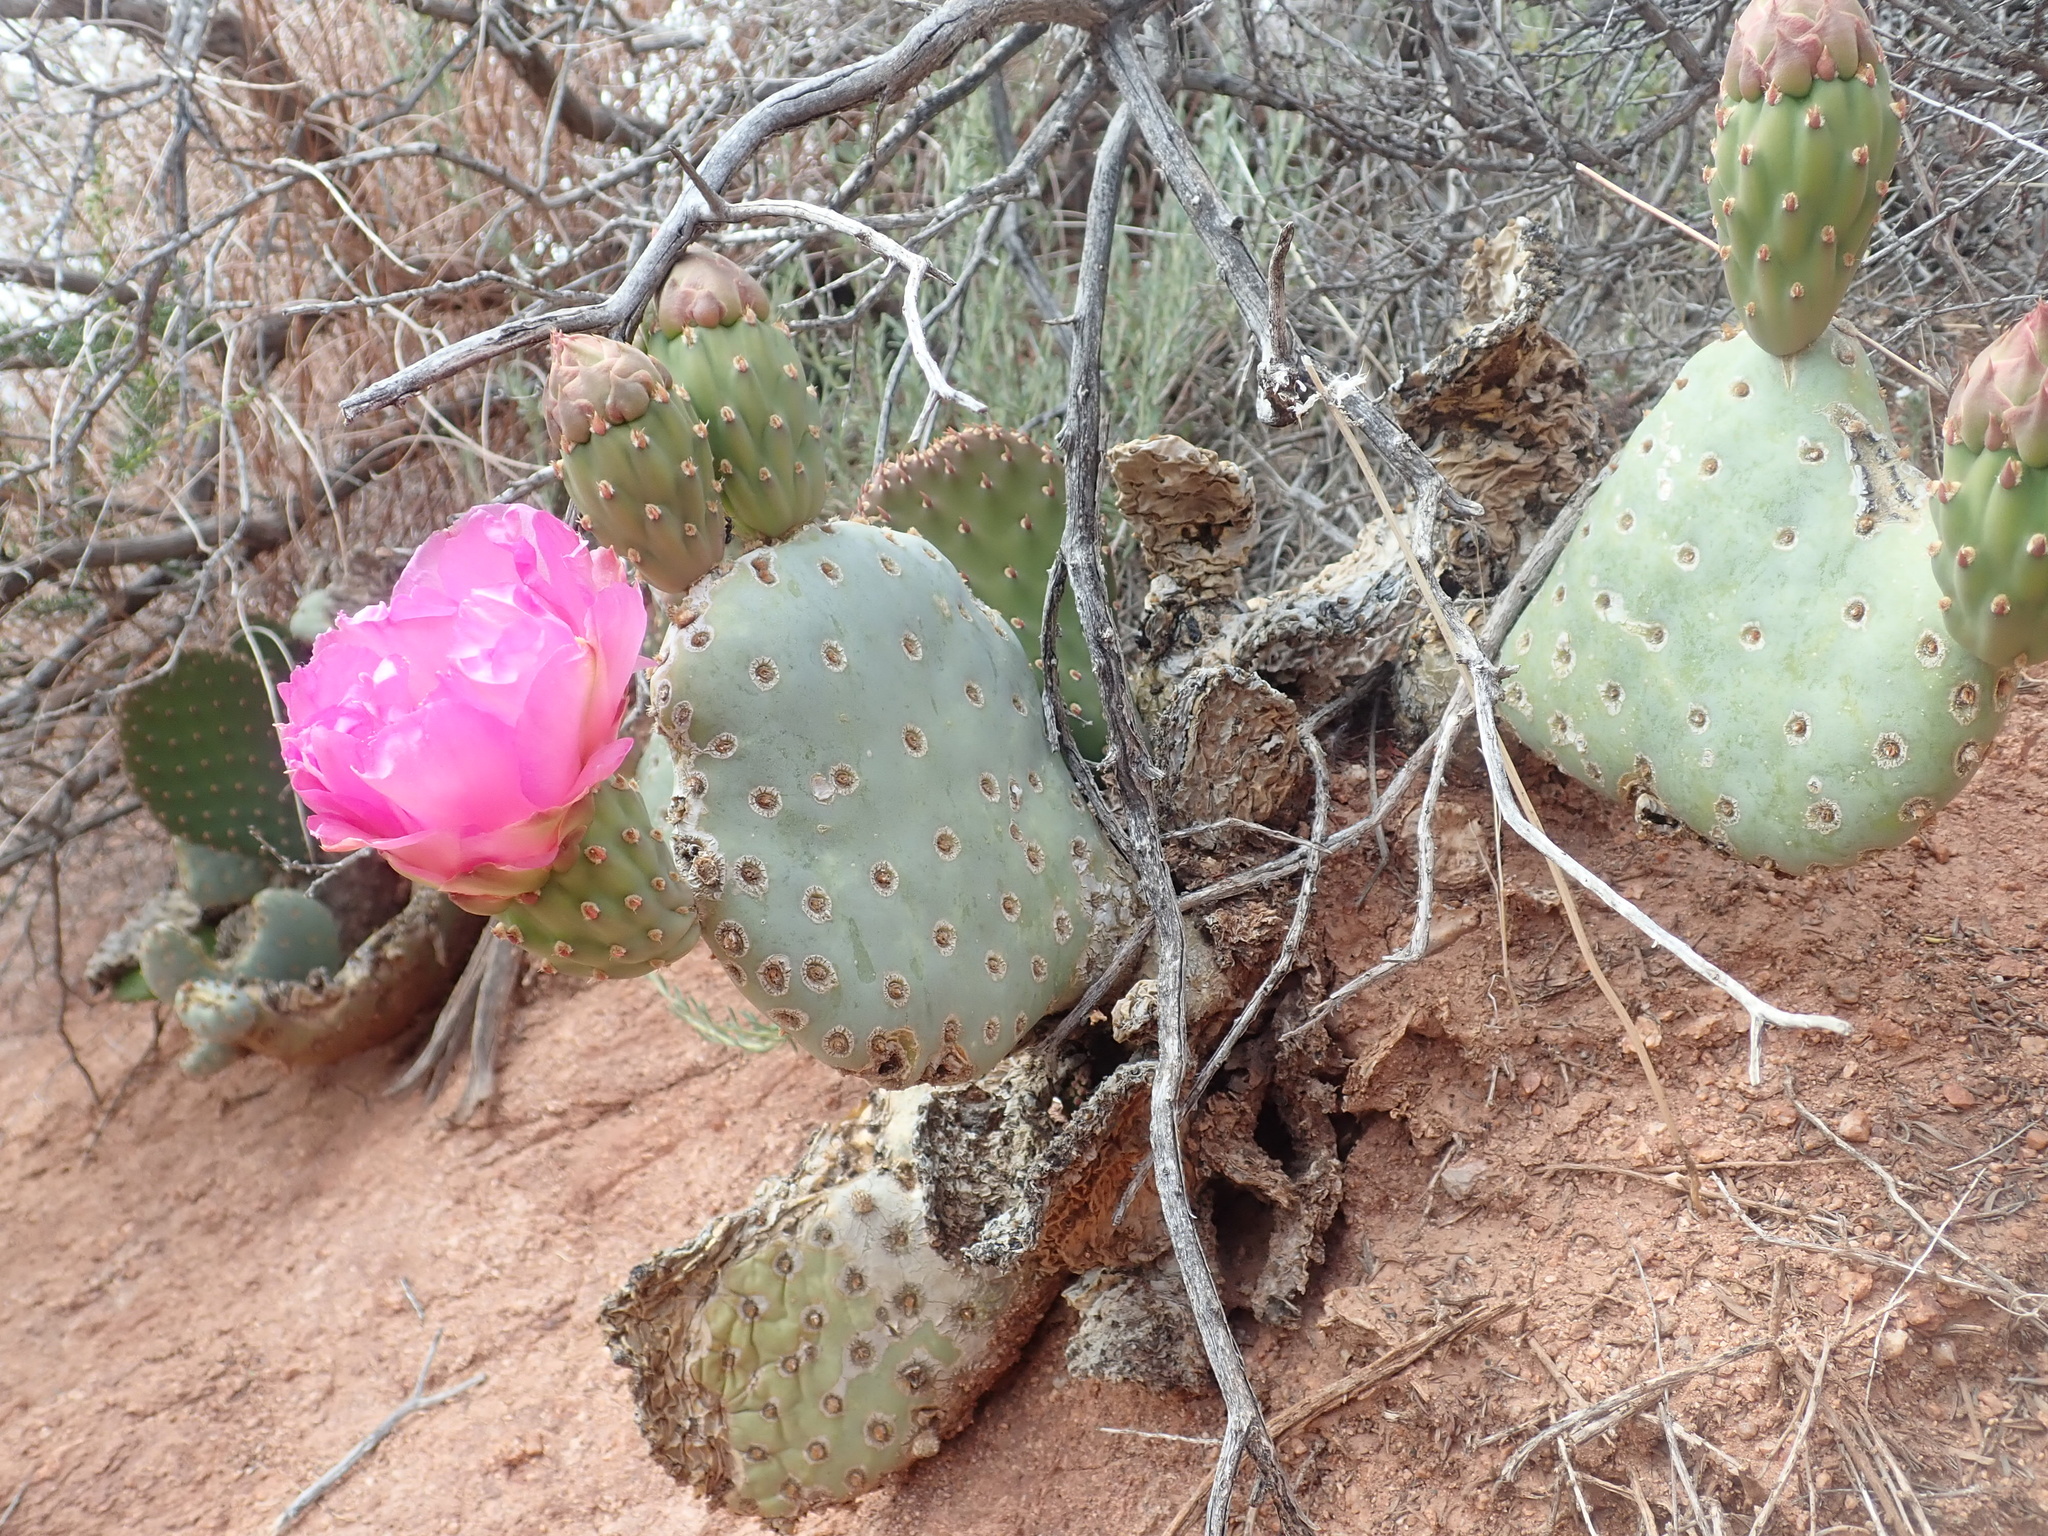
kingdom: Plantae
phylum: Tracheophyta
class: Magnoliopsida
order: Caryophyllales
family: Cactaceae
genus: Opuntia
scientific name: Opuntia basilaris
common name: Beavertail prickly-pear
